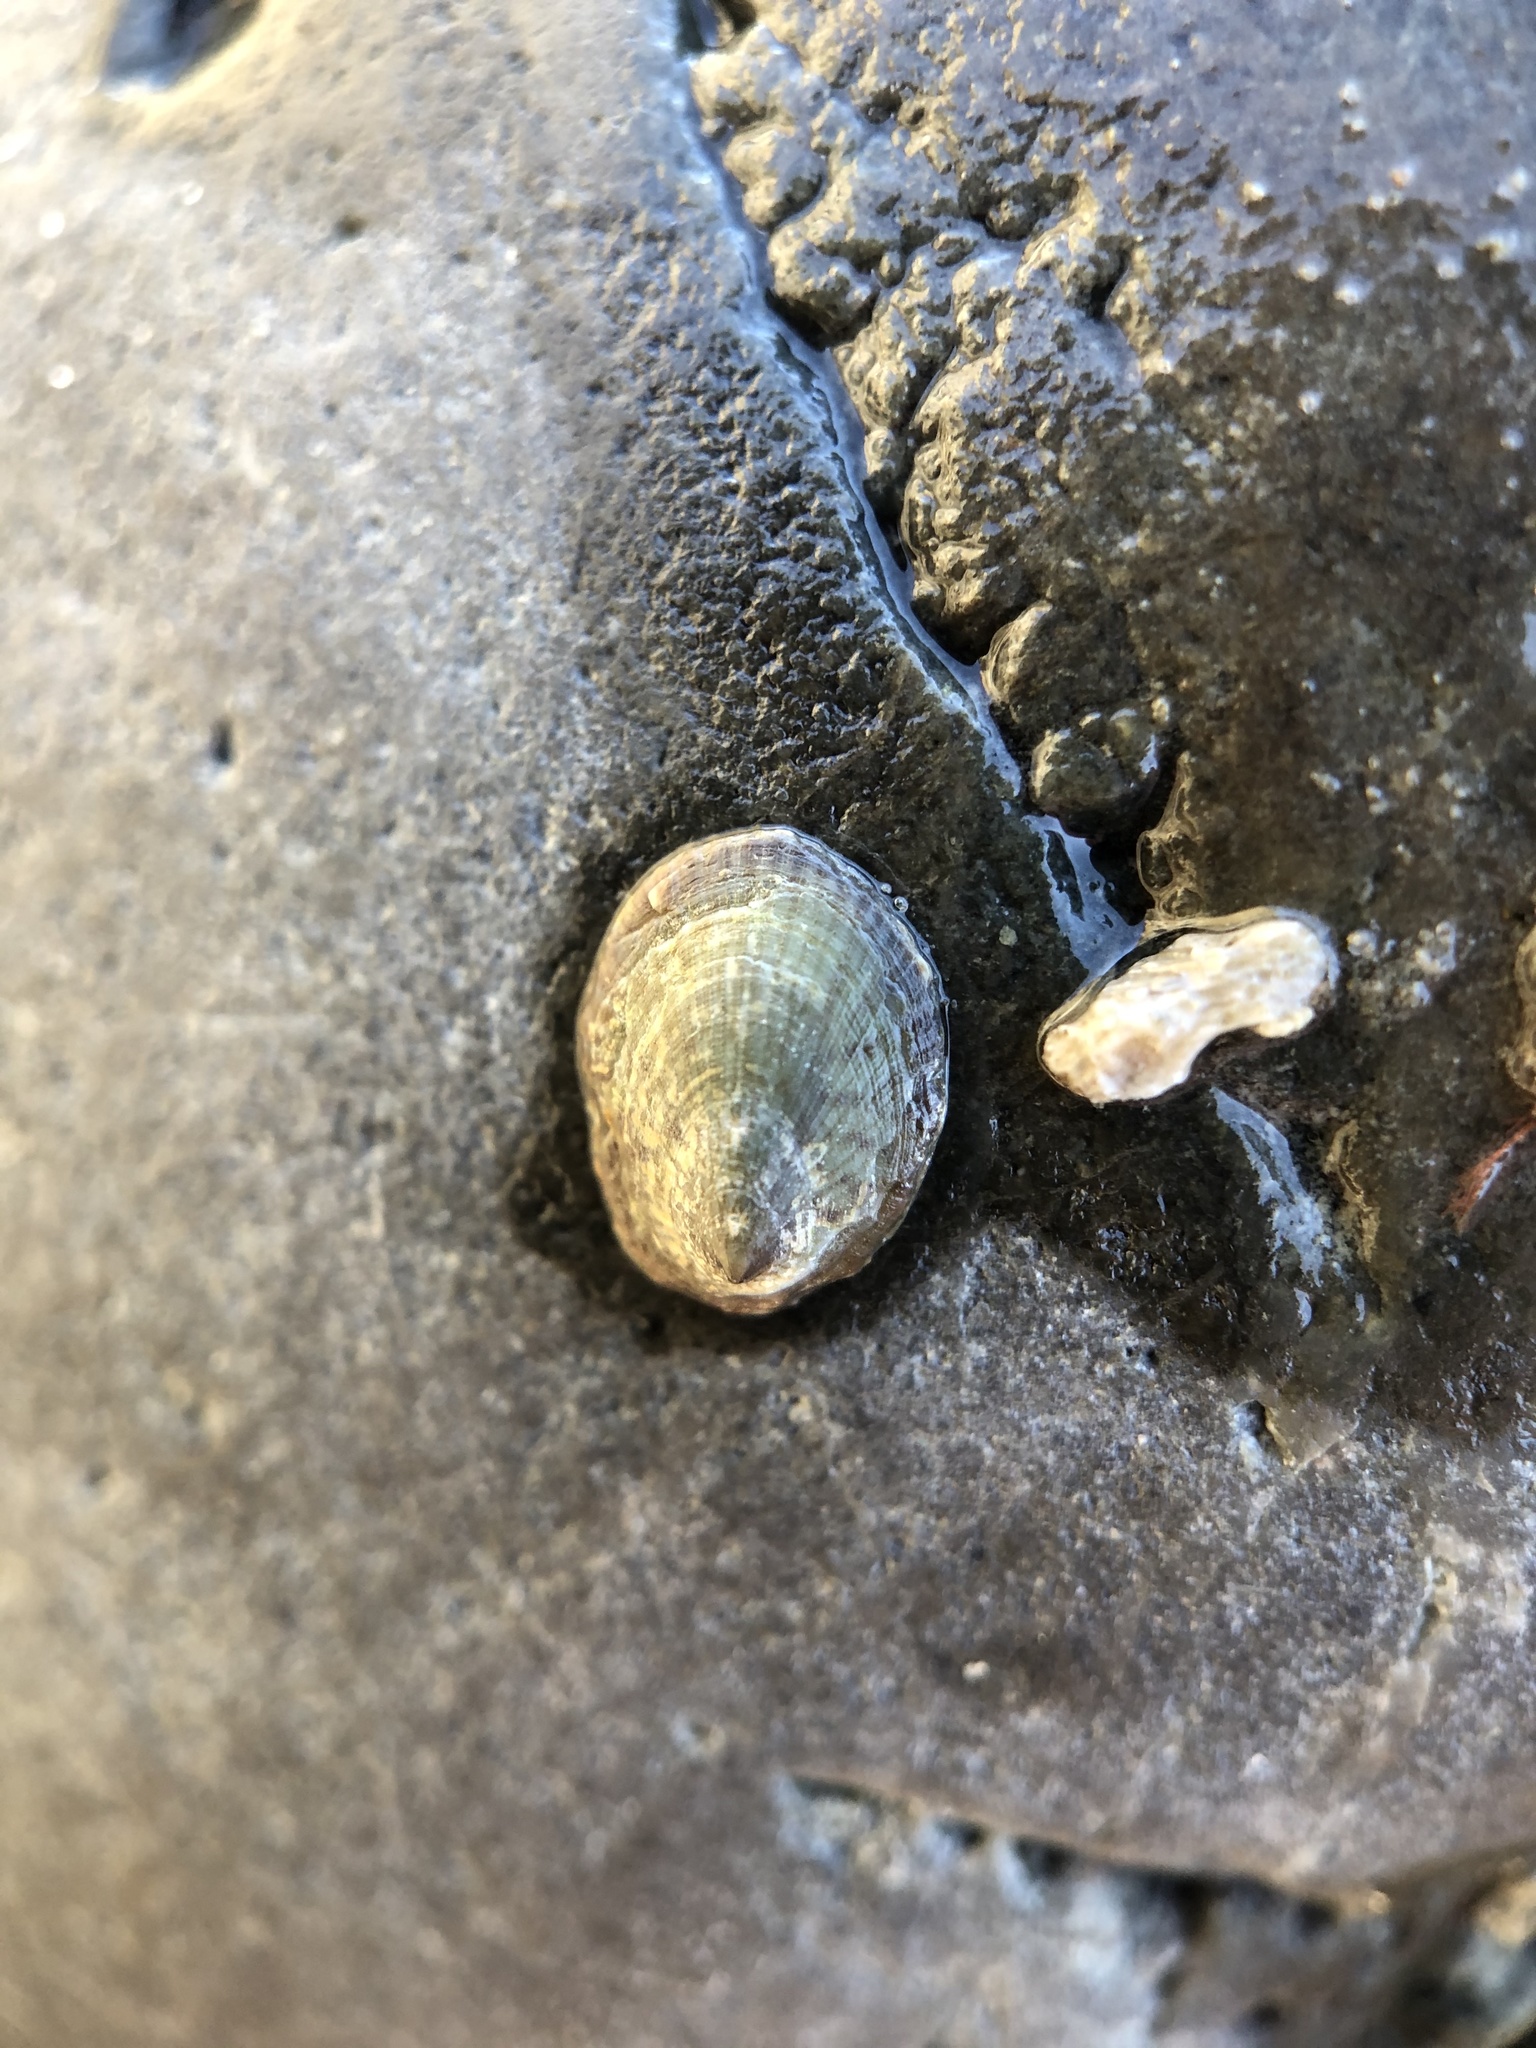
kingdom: Animalia
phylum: Mollusca
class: Gastropoda
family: Lottiidae
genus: Notoacmea
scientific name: Notoacmea
